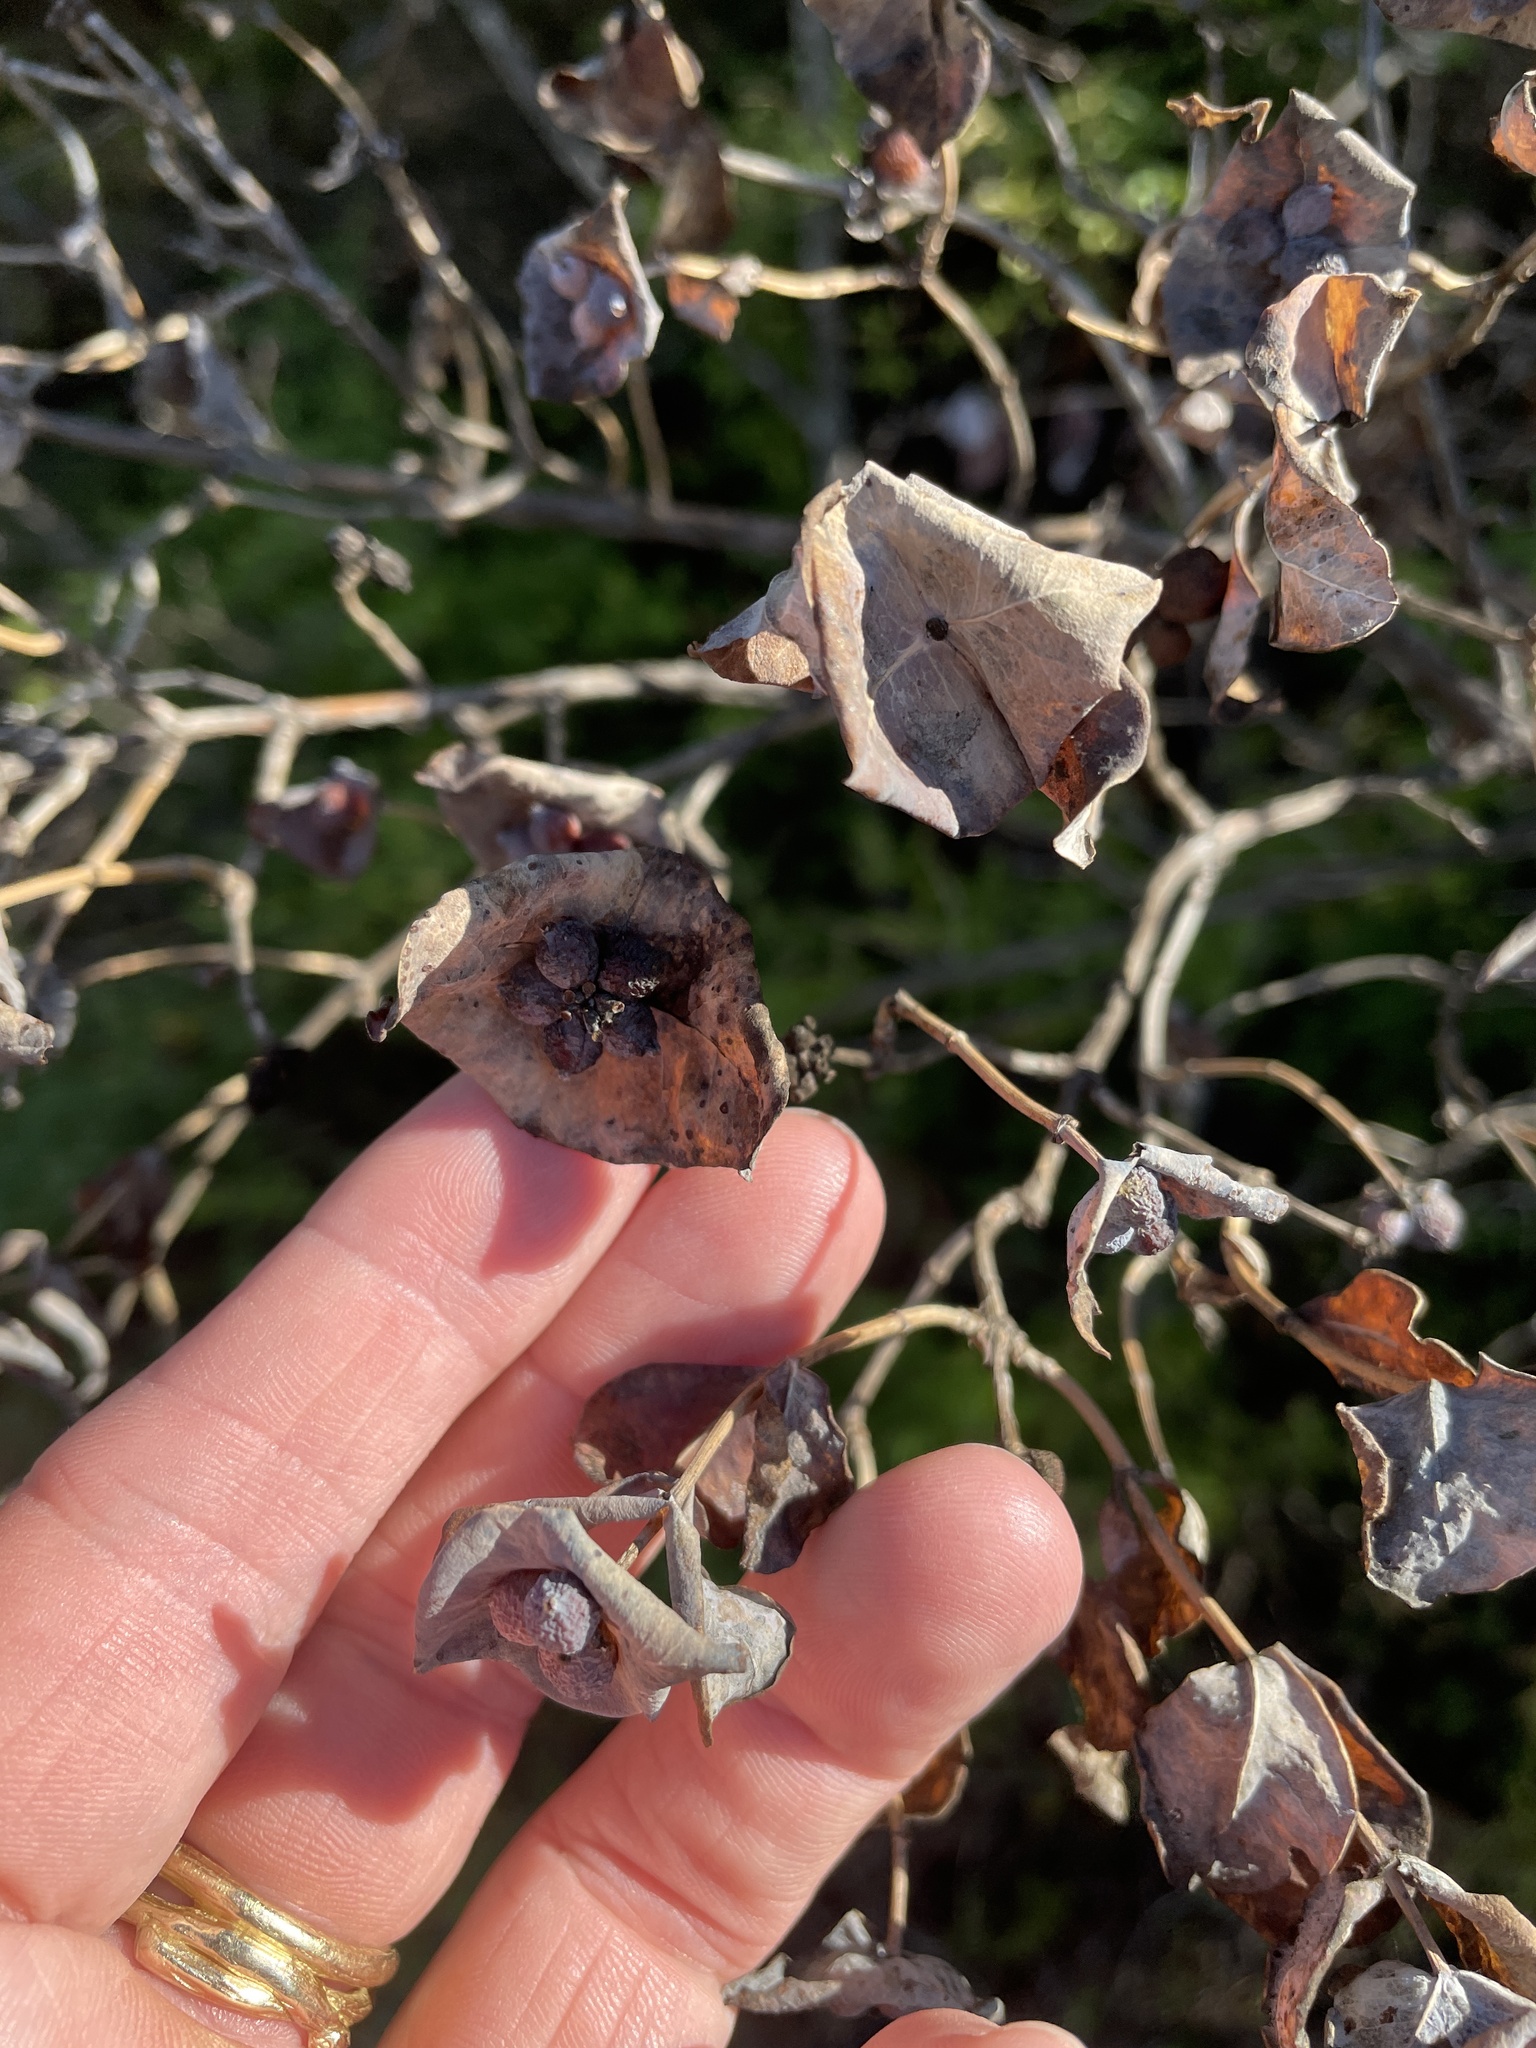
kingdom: Plantae
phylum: Tracheophyta
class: Magnoliopsida
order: Dipsacales
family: Caprifoliaceae
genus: Lonicera
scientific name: Lonicera albiflora
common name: White honeysuckle
